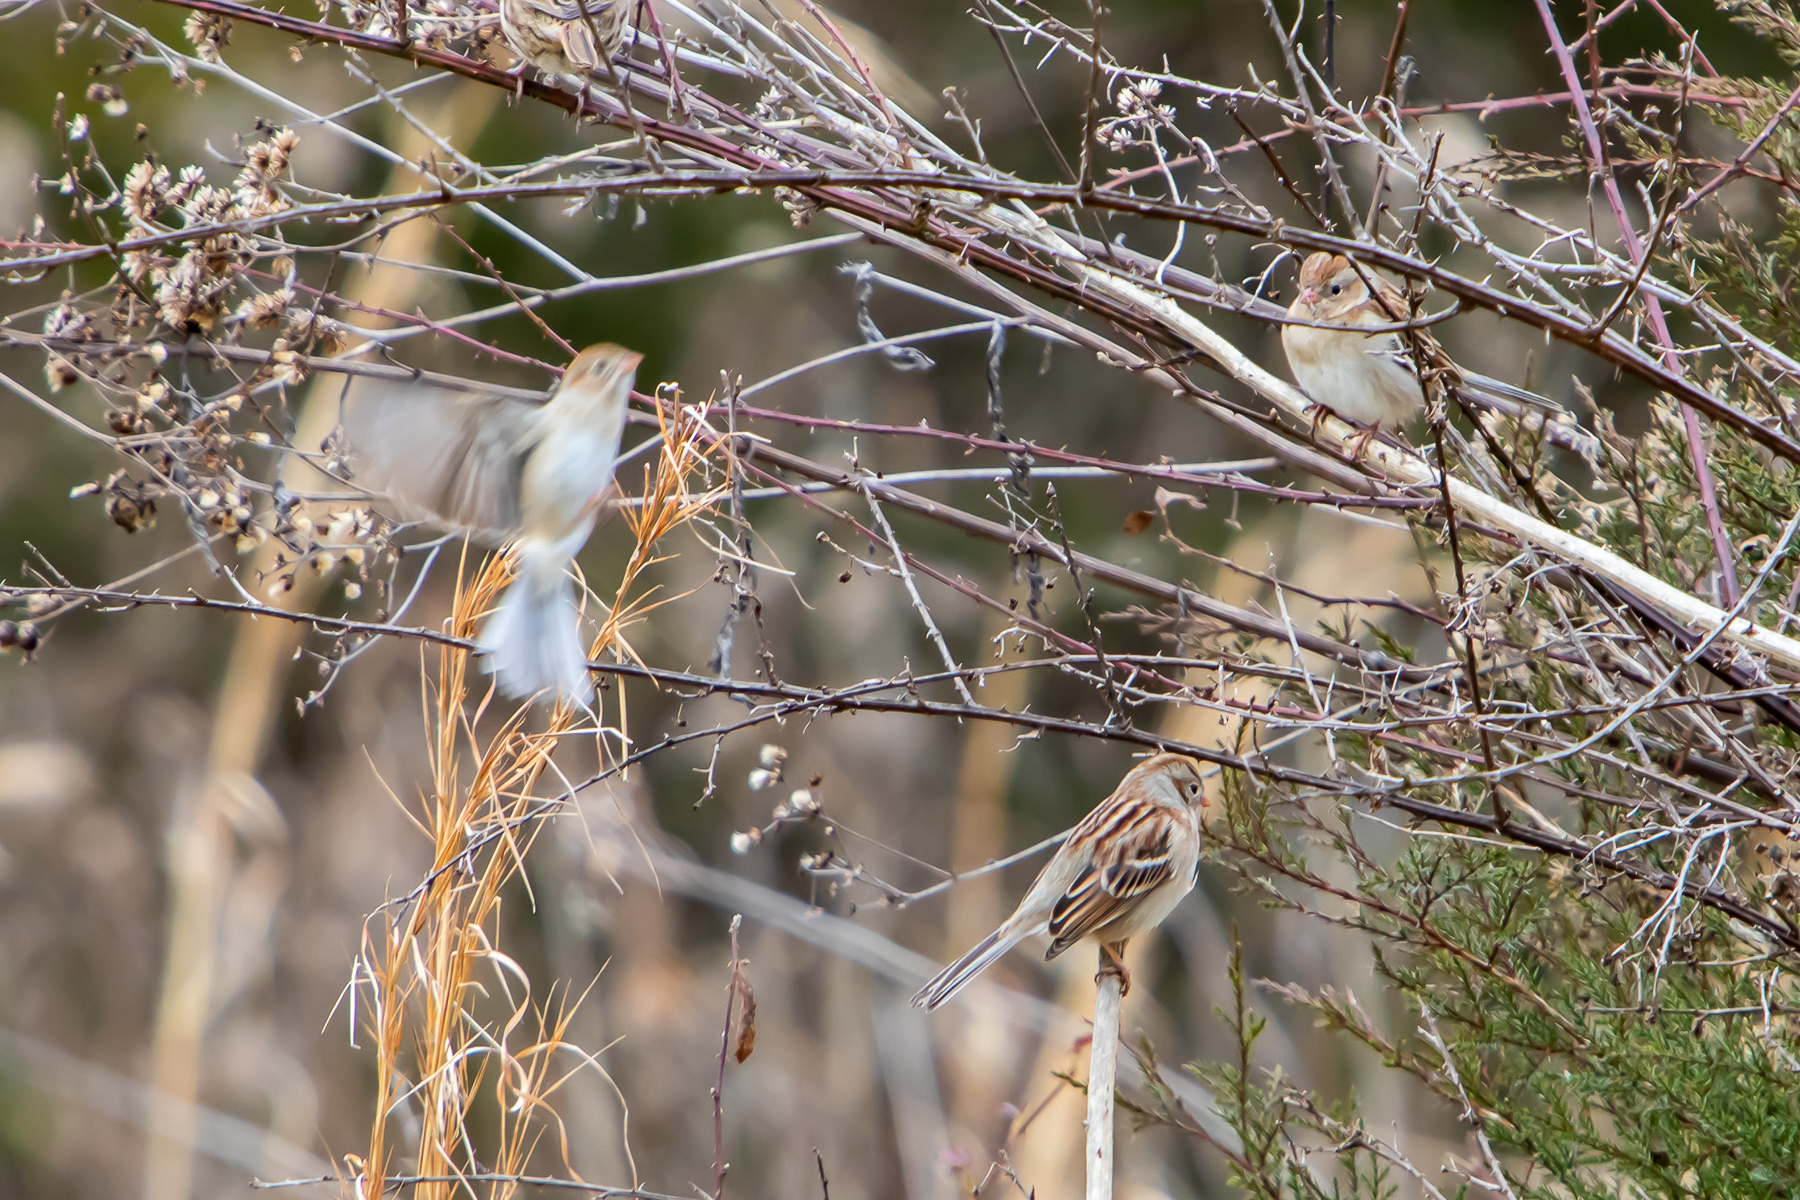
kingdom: Animalia
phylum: Chordata
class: Aves
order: Passeriformes
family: Passerellidae
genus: Spizella
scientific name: Spizella pusilla
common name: Field sparrow
